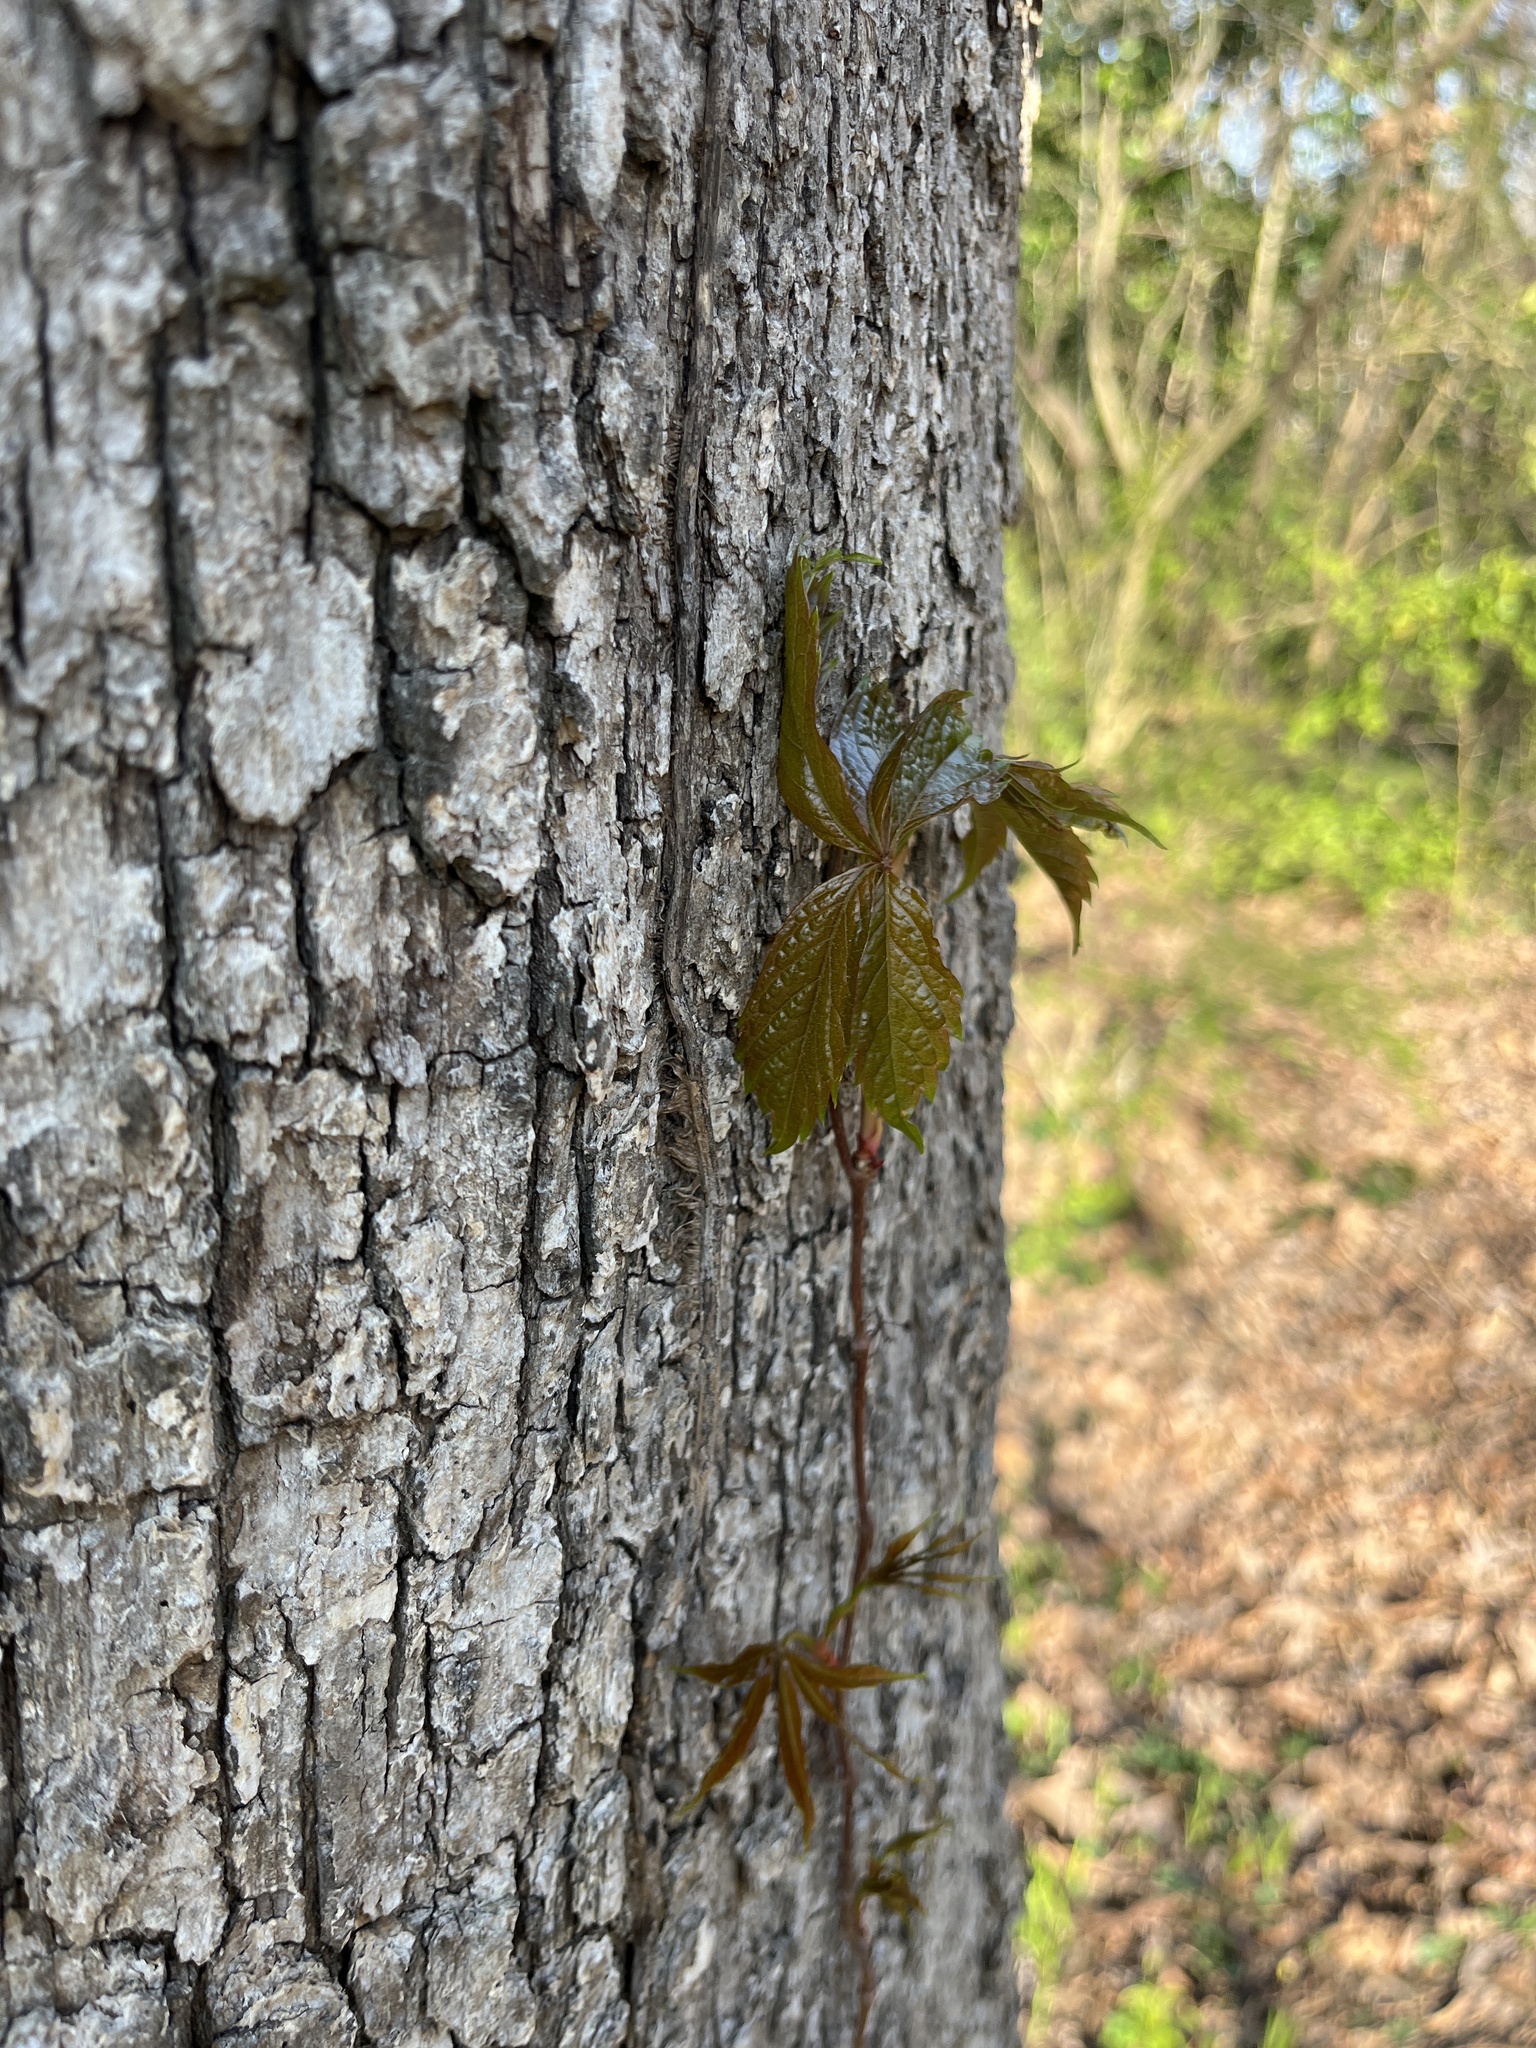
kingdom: Plantae
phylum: Tracheophyta
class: Magnoliopsida
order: Vitales
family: Vitaceae
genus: Parthenocissus
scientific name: Parthenocissus quinquefolia
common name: Virginia-creeper
